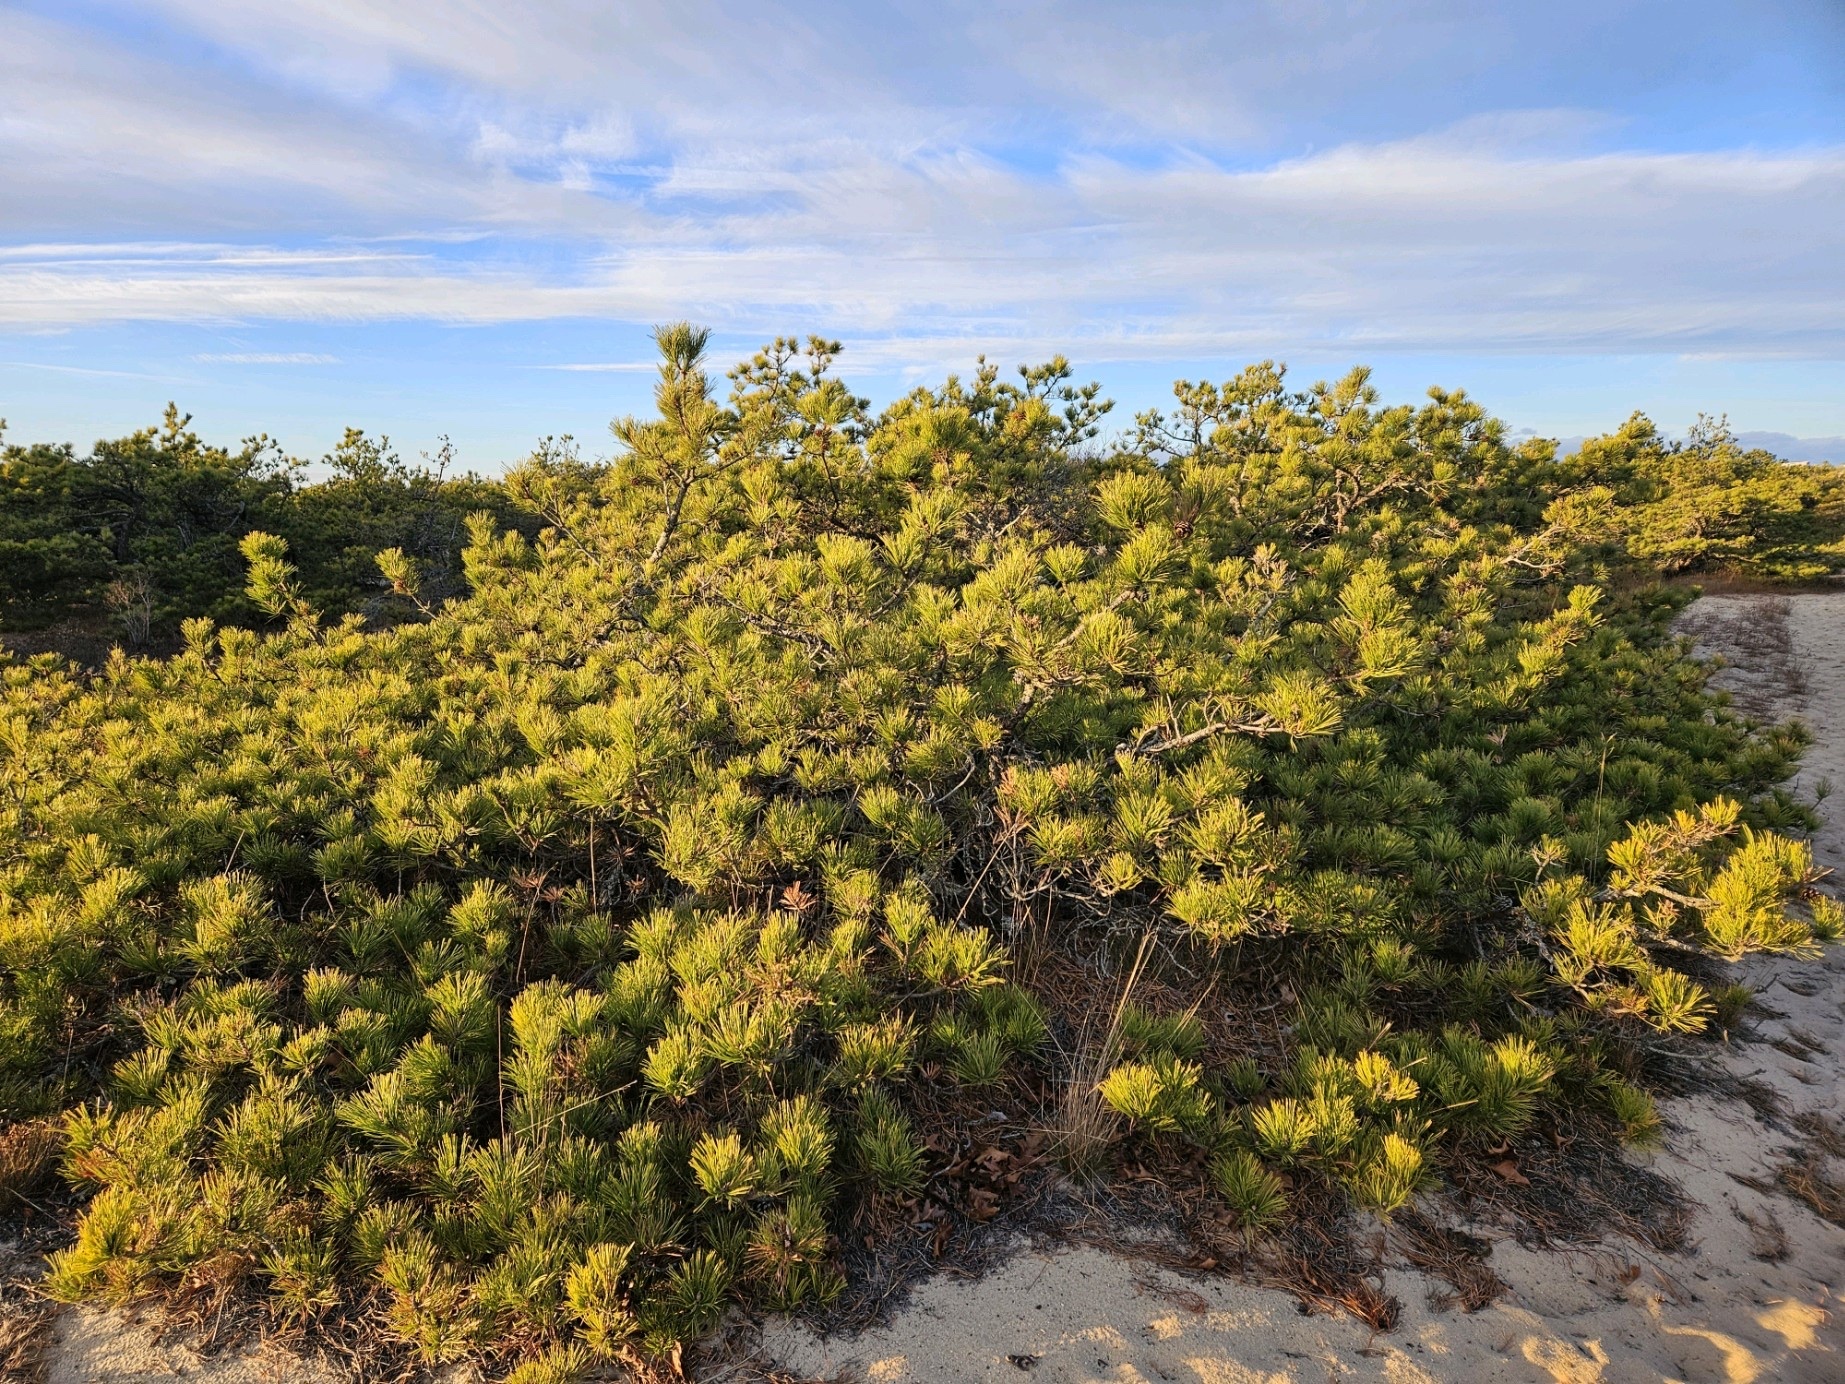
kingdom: Plantae
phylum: Tracheophyta
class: Pinopsida
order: Pinales
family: Pinaceae
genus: Pinus
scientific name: Pinus rigida
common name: Pitch pine
